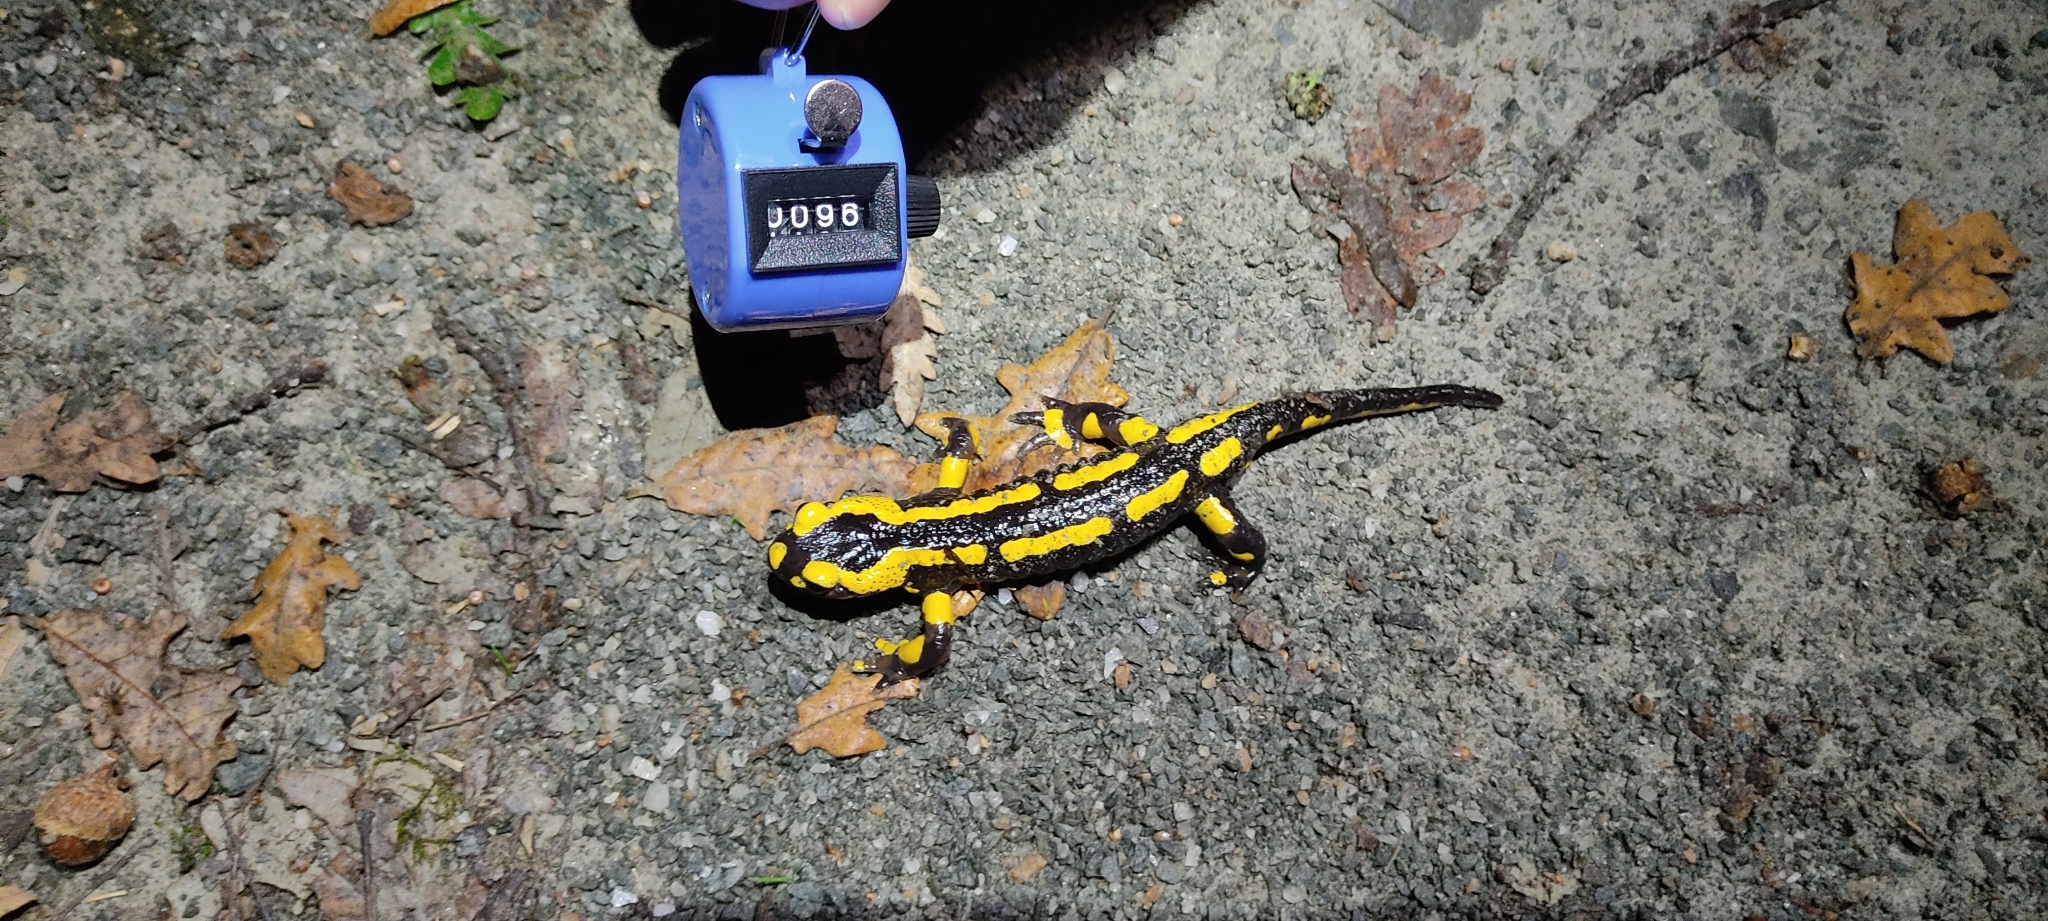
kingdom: Animalia
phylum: Chordata
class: Amphibia
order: Caudata
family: Salamandridae
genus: Salamandra
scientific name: Salamandra salamandra
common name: Fire salamander
